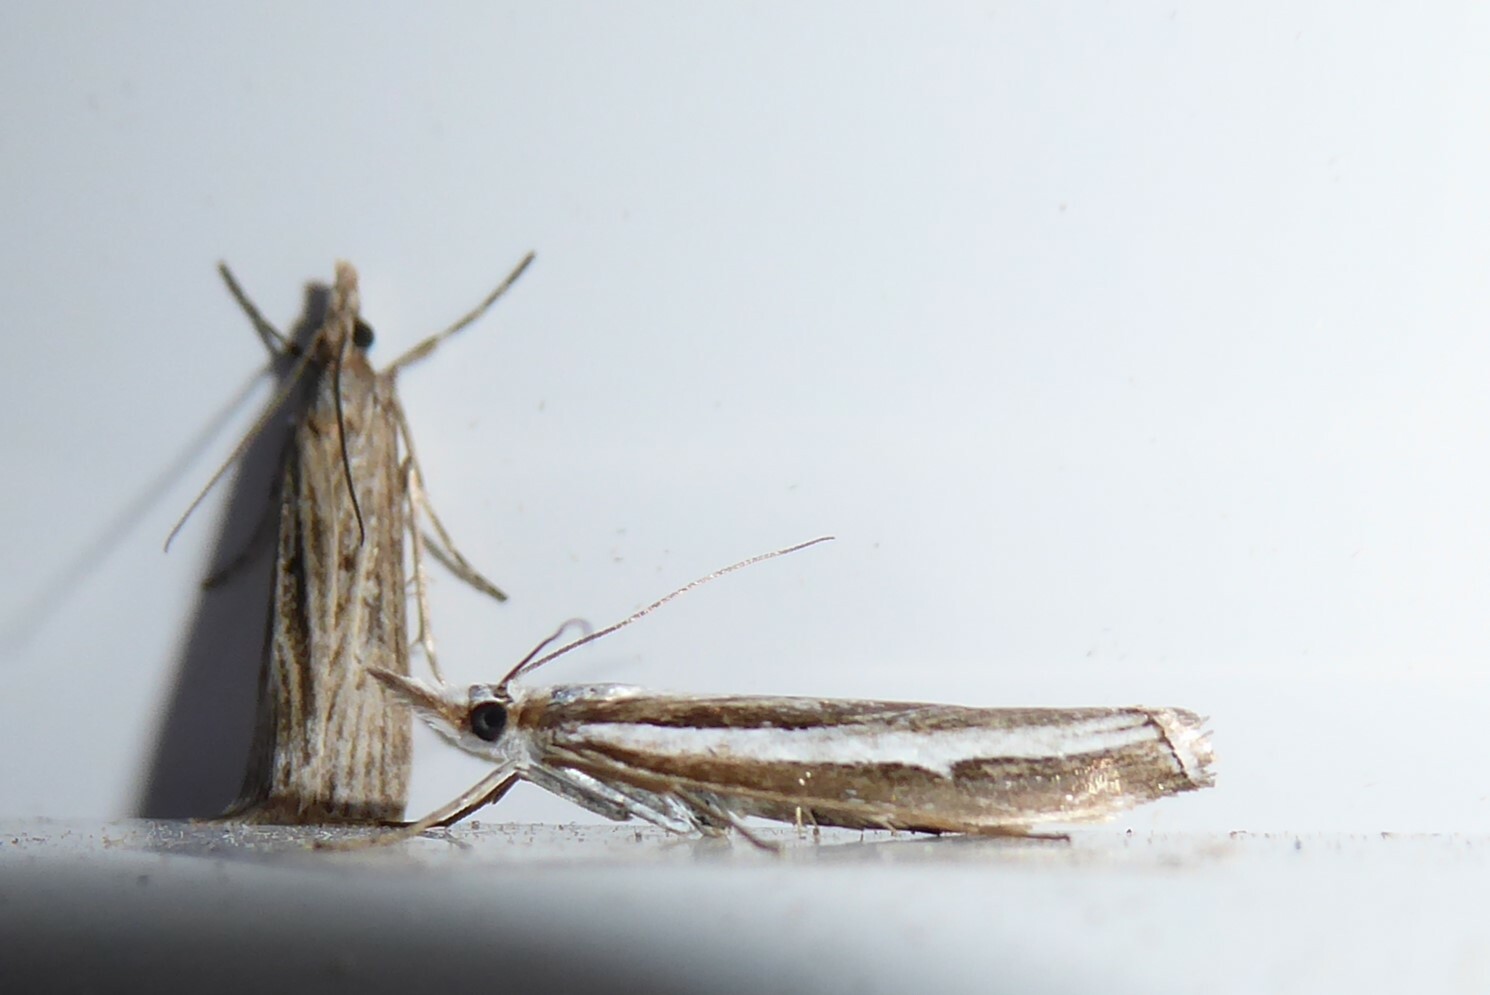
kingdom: Animalia
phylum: Arthropoda
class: Insecta
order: Lepidoptera
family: Crambidae
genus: Orocrambus
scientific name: Orocrambus vittellus
